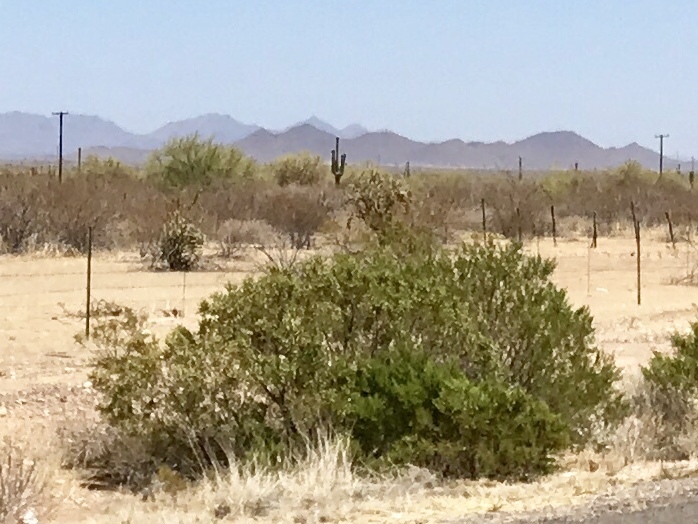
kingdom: Plantae
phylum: Tracheophyta
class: Magnoliopsida
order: Zygophyllales
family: Zygophyllaceae
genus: Larrea
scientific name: Larrea tridentata
